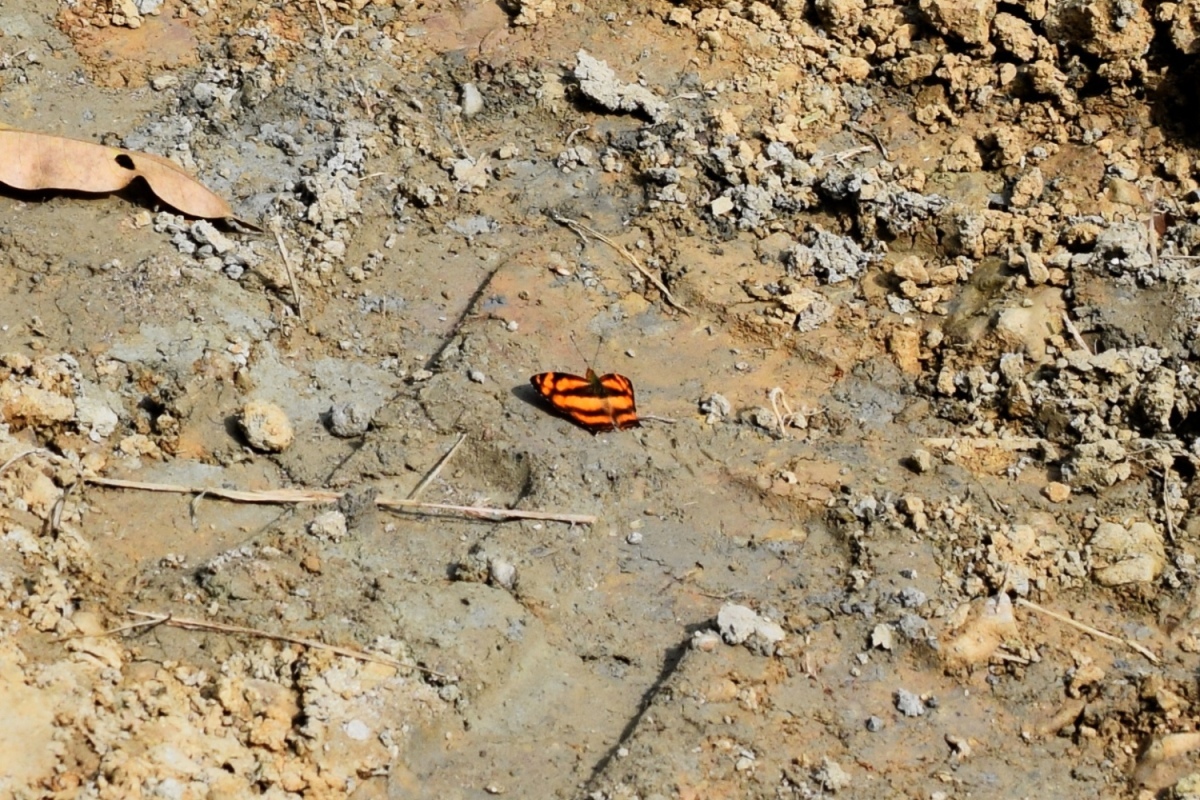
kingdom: Animalia
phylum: Arthropoda
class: Insecta
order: Lepidoptera
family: Nymphalidae
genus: Symbrenthia
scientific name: Symbrenthia hypselis
